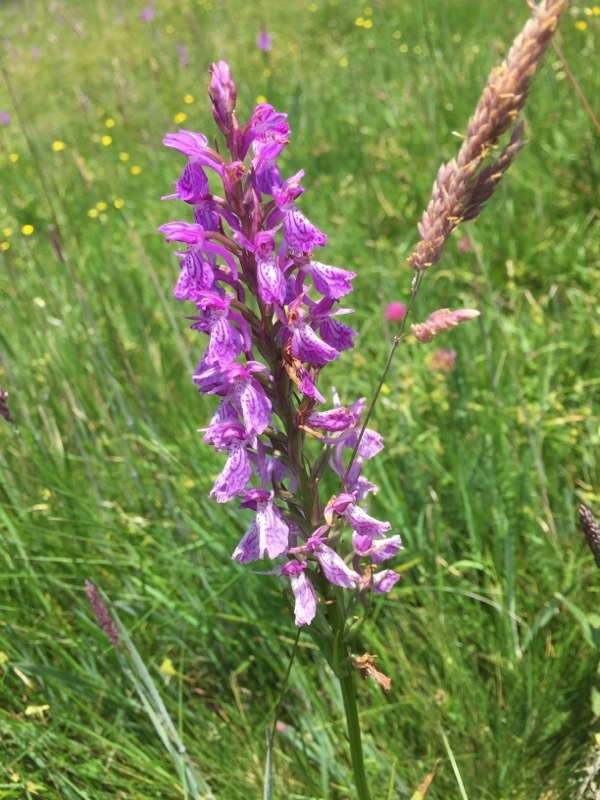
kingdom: Plantae
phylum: Tracheophyta
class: Liliopsida
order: Asparagales
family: Orchidaceae
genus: Dactylorhiza
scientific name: Dactylorhiza maculata
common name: Heath spotted-orchid
